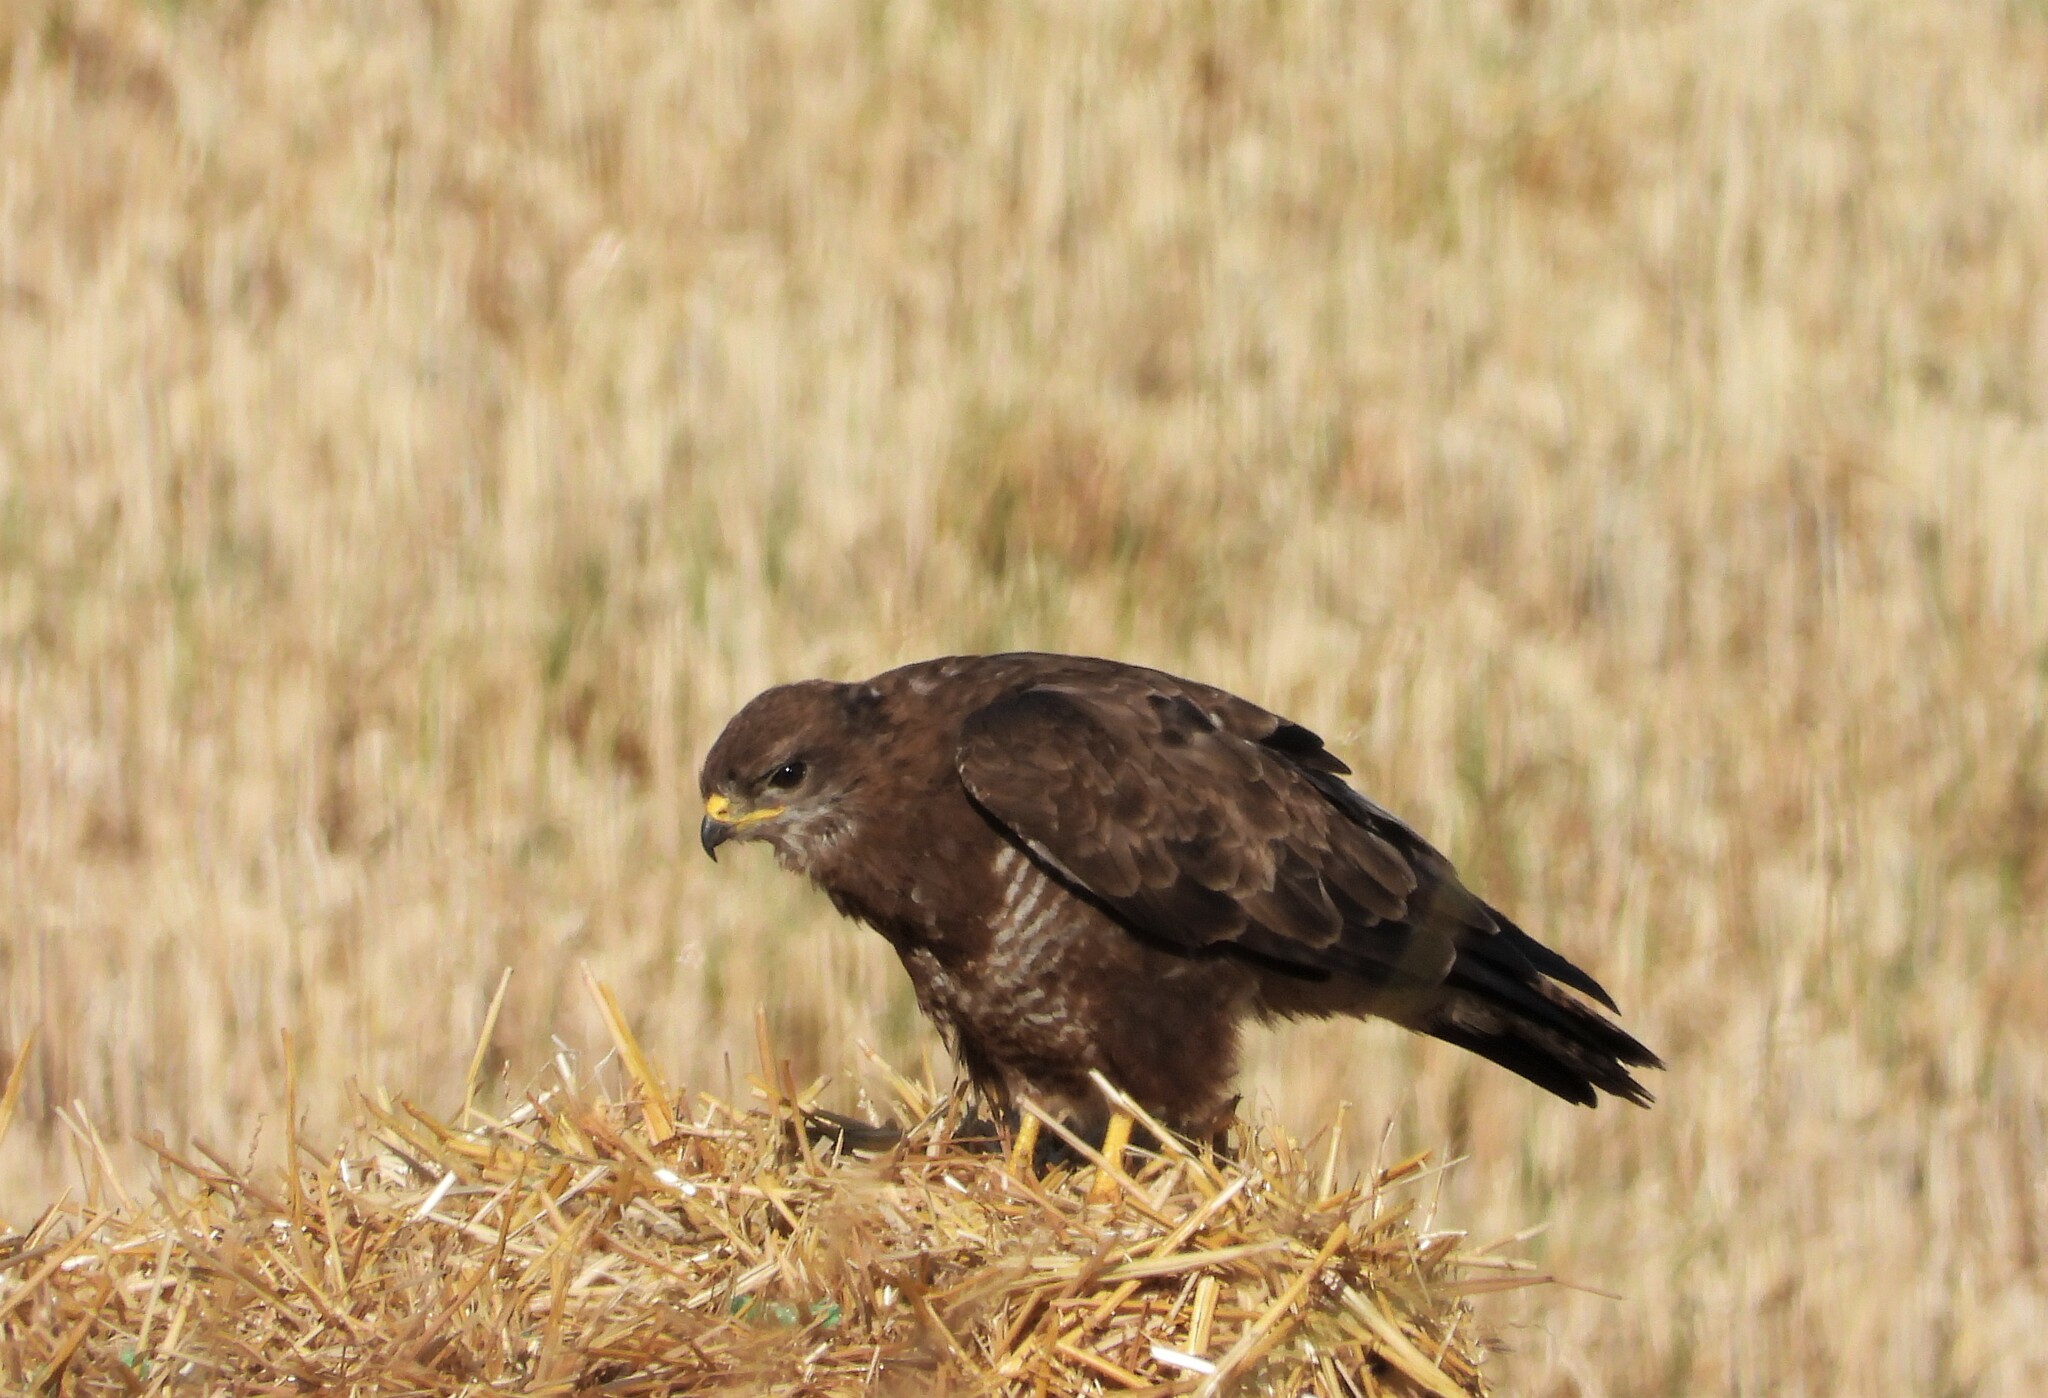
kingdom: Animalia
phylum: Chordata
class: Aves
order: Accipitriformes
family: Accipitridae
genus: Buteo
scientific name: Buteo buteo
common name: Common buzzard
